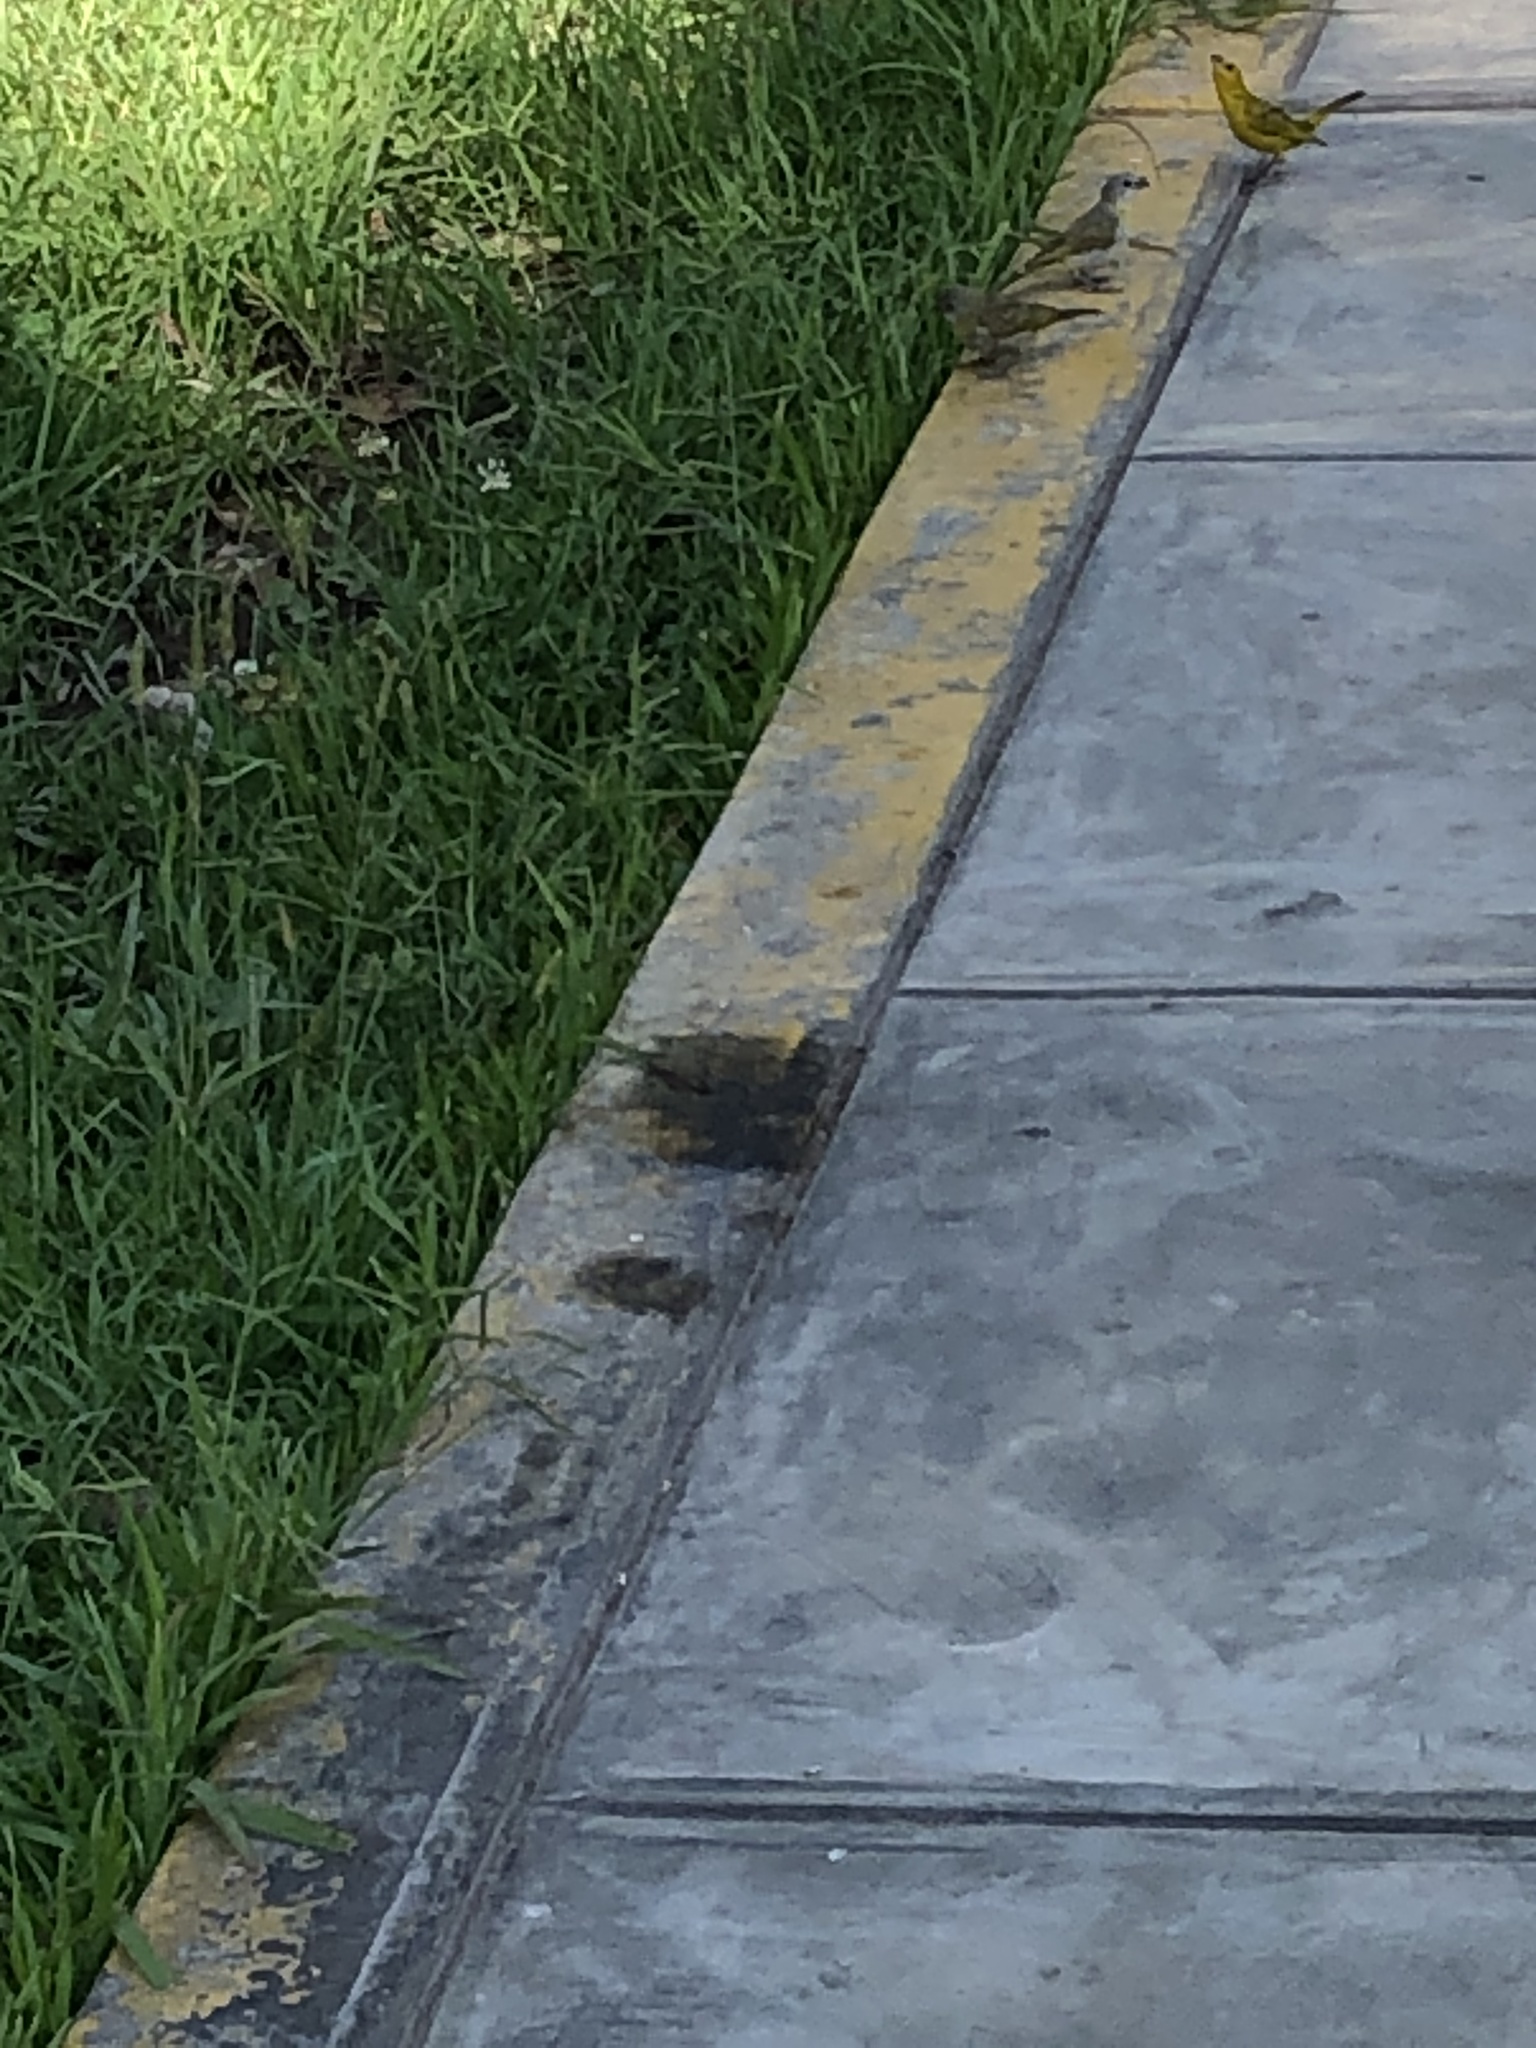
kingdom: Animalia
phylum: Chordata
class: Aves
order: Passeriformes
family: Thraupidae
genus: Sicalis
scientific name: Sicalis flaveola
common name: Saffron finch
